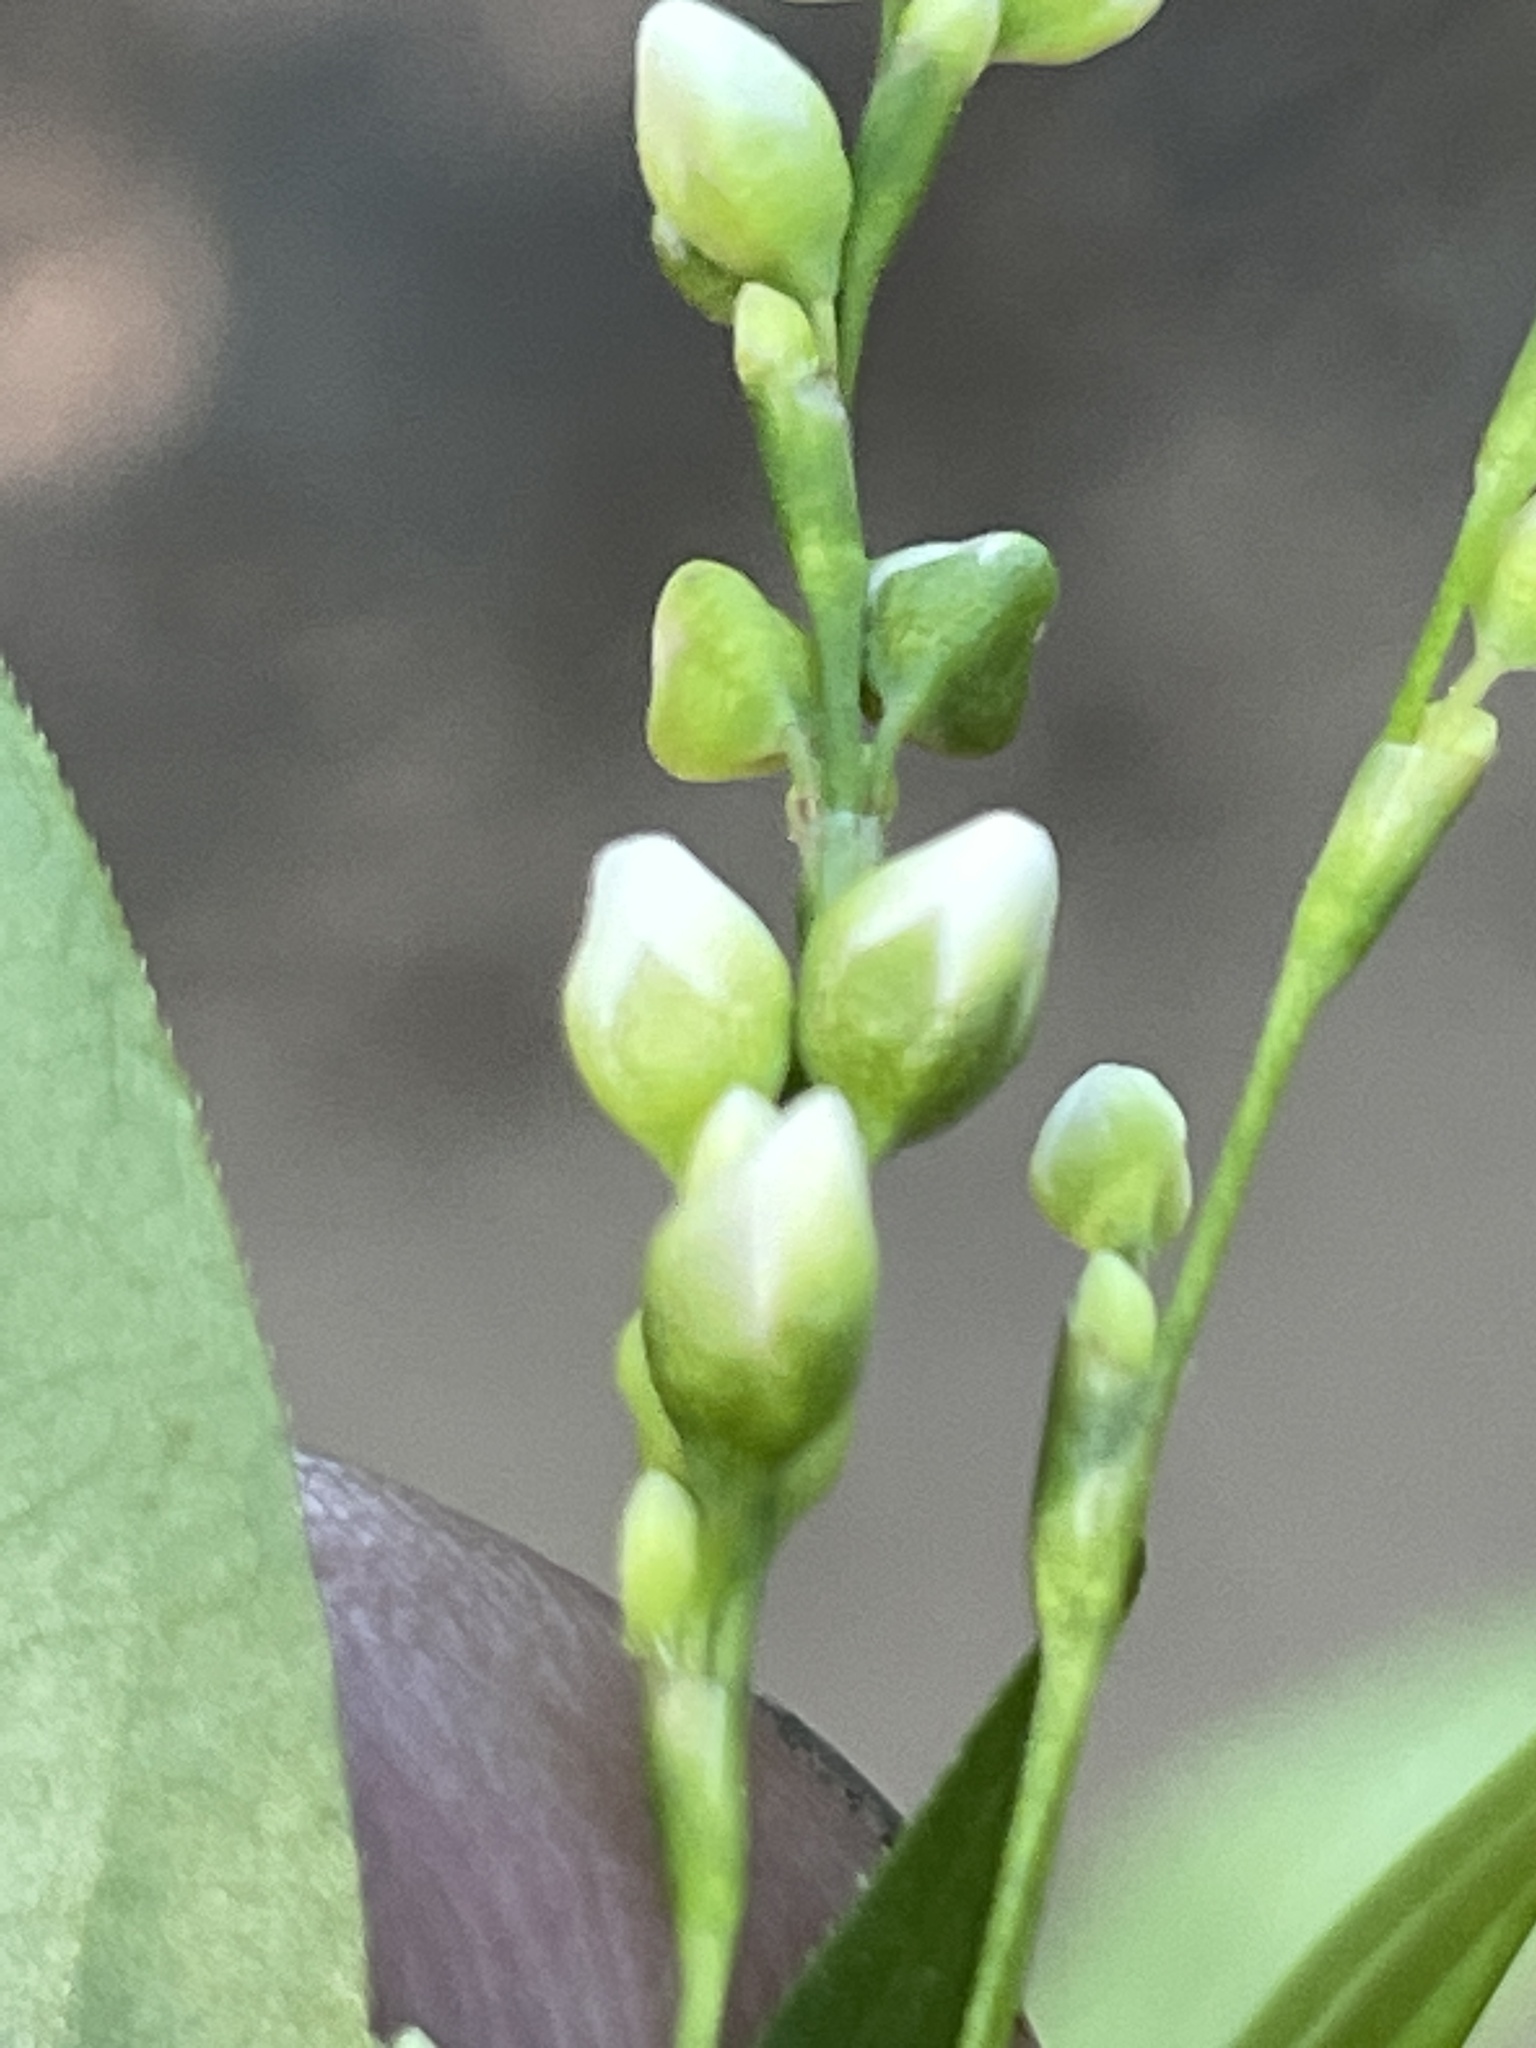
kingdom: Plantae
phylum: Tracheophyta
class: Magnoliopsida
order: Caryophyllales
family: Polygonaceae
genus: Persicaria
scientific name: Persicaria punctata
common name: Dotted smartweed
